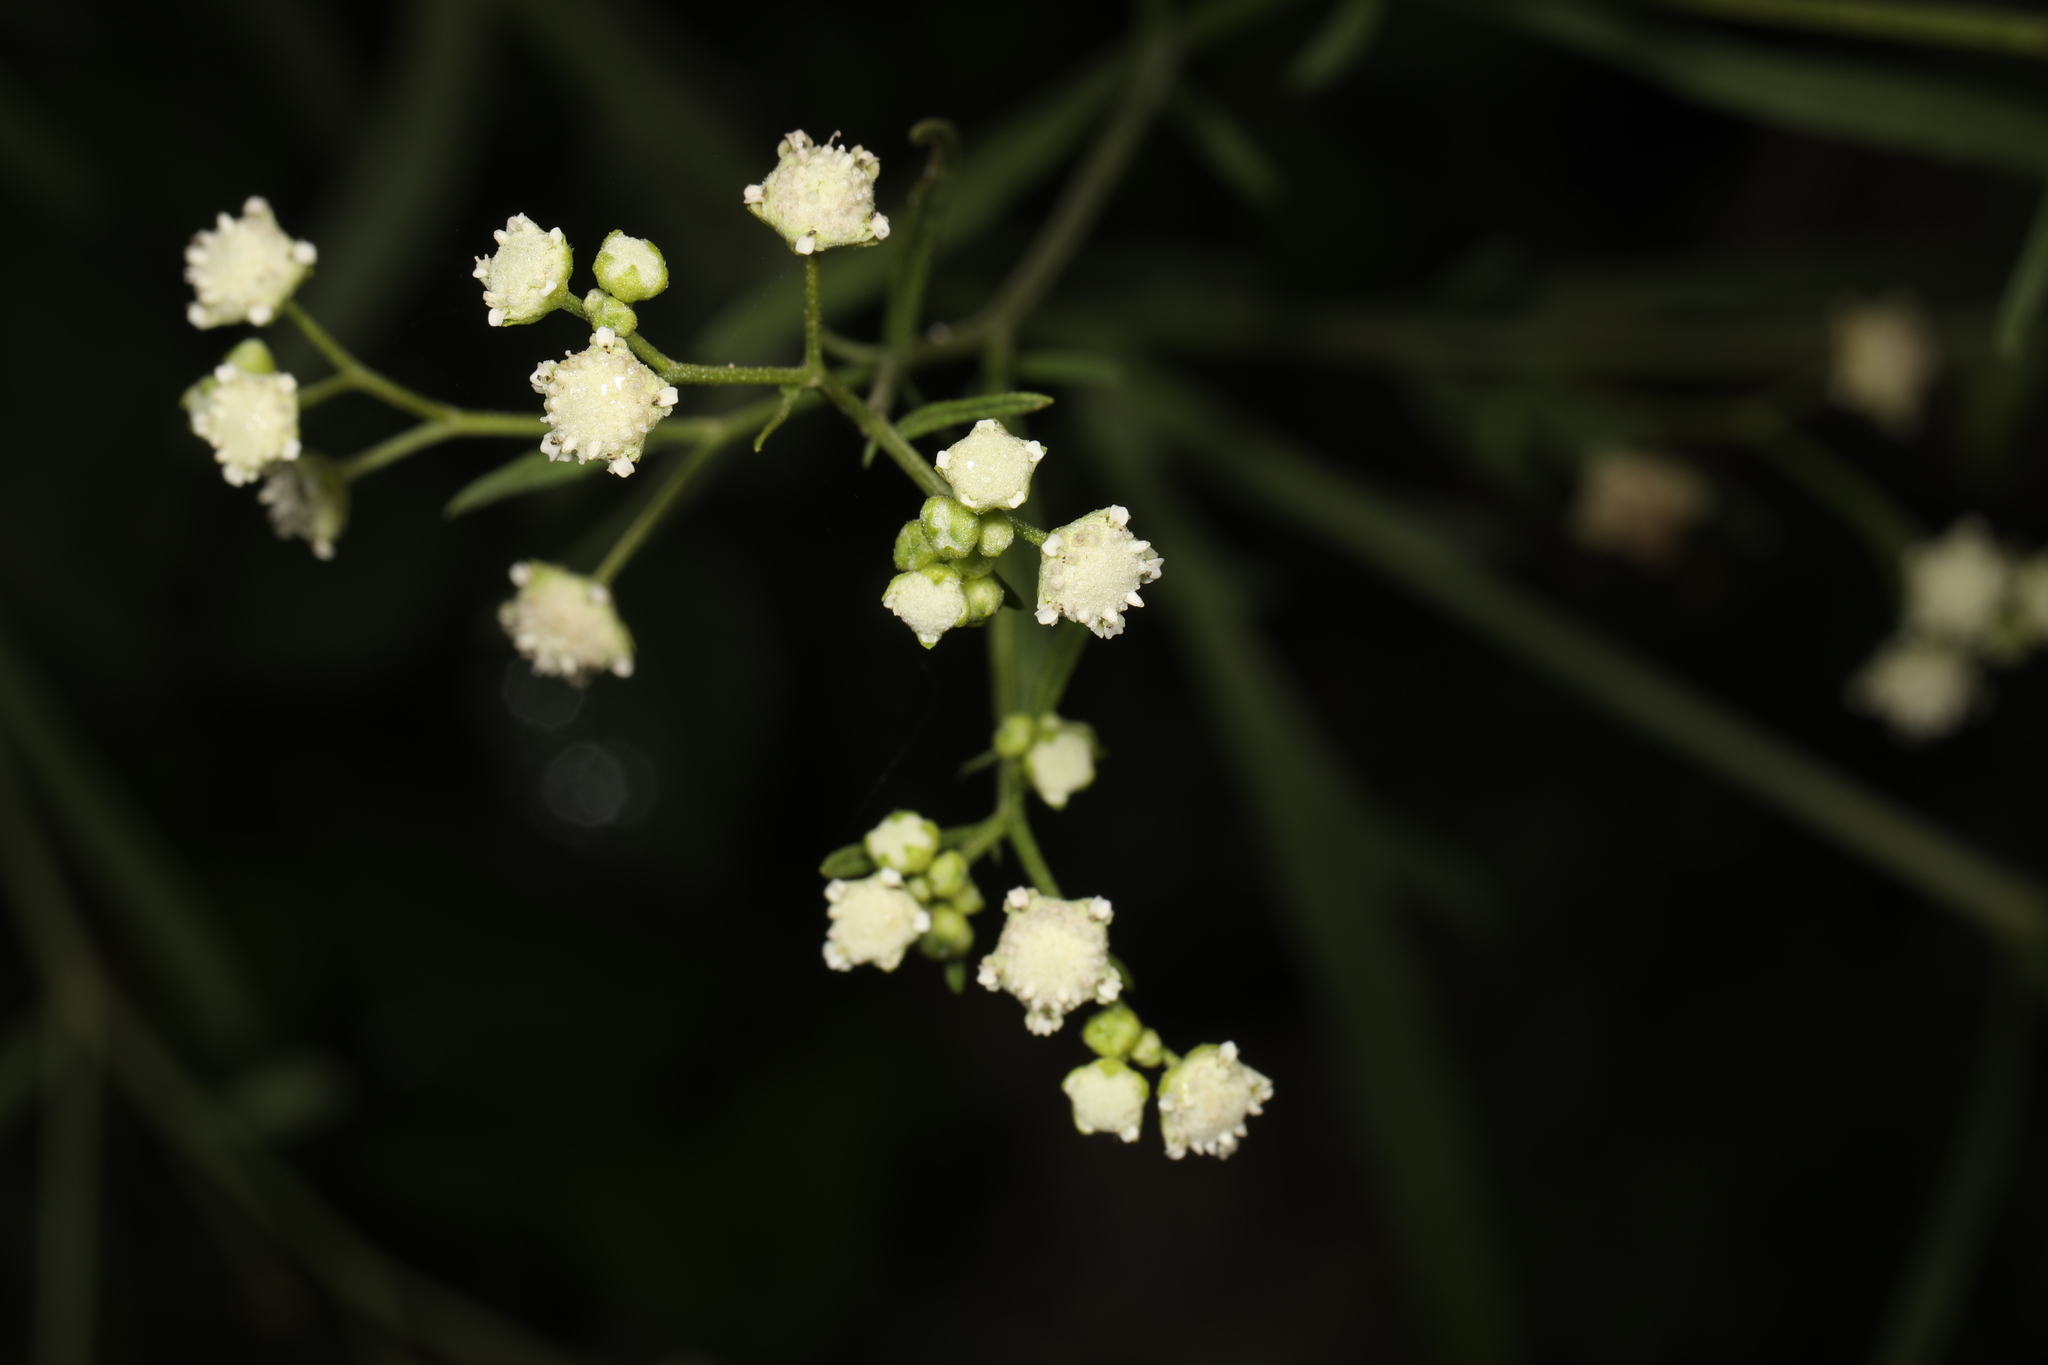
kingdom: Plantae
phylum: Tracheophyta
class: Magnoliopsida
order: Asterales
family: Asteraceae
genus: Parthenium
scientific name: Parthenium hysterophorus
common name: Santa maria feverfew
